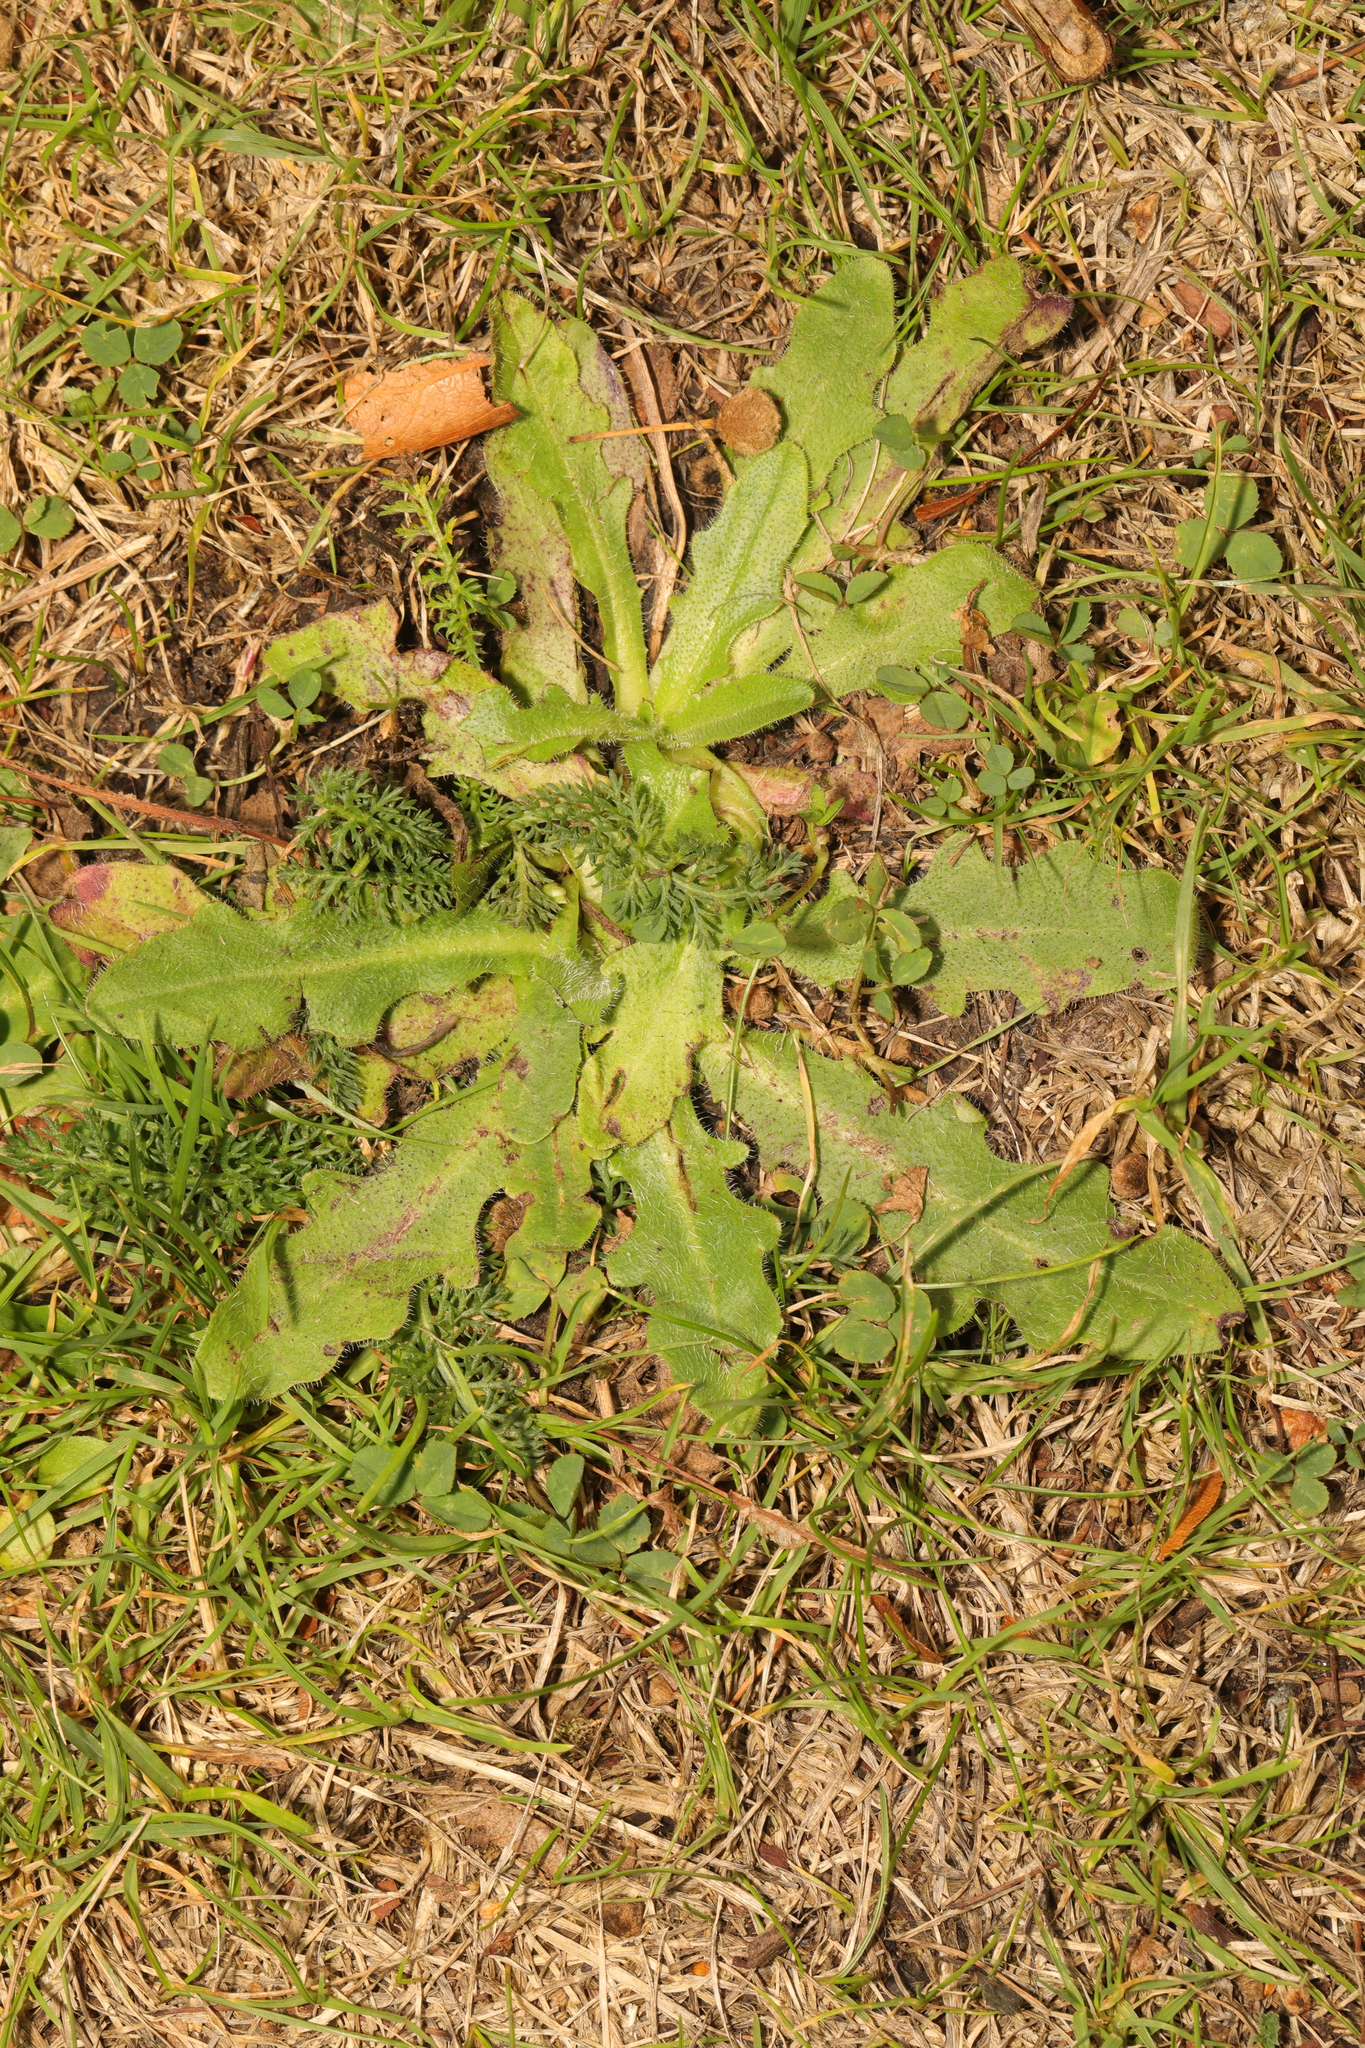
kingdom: Plantae
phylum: Tracheophyta
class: Magnoliopsida
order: Asterales
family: Asteraceae
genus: Hypochaeris
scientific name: Hypochaeris radicata
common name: Flatweed
